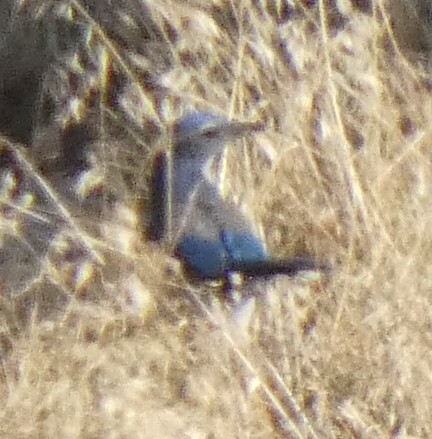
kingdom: Animalia
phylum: Chordata
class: Aves
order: Passeriformes
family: Corvidae
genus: Aphelocoma
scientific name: Aphelocoma californica
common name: California scrub-jay
